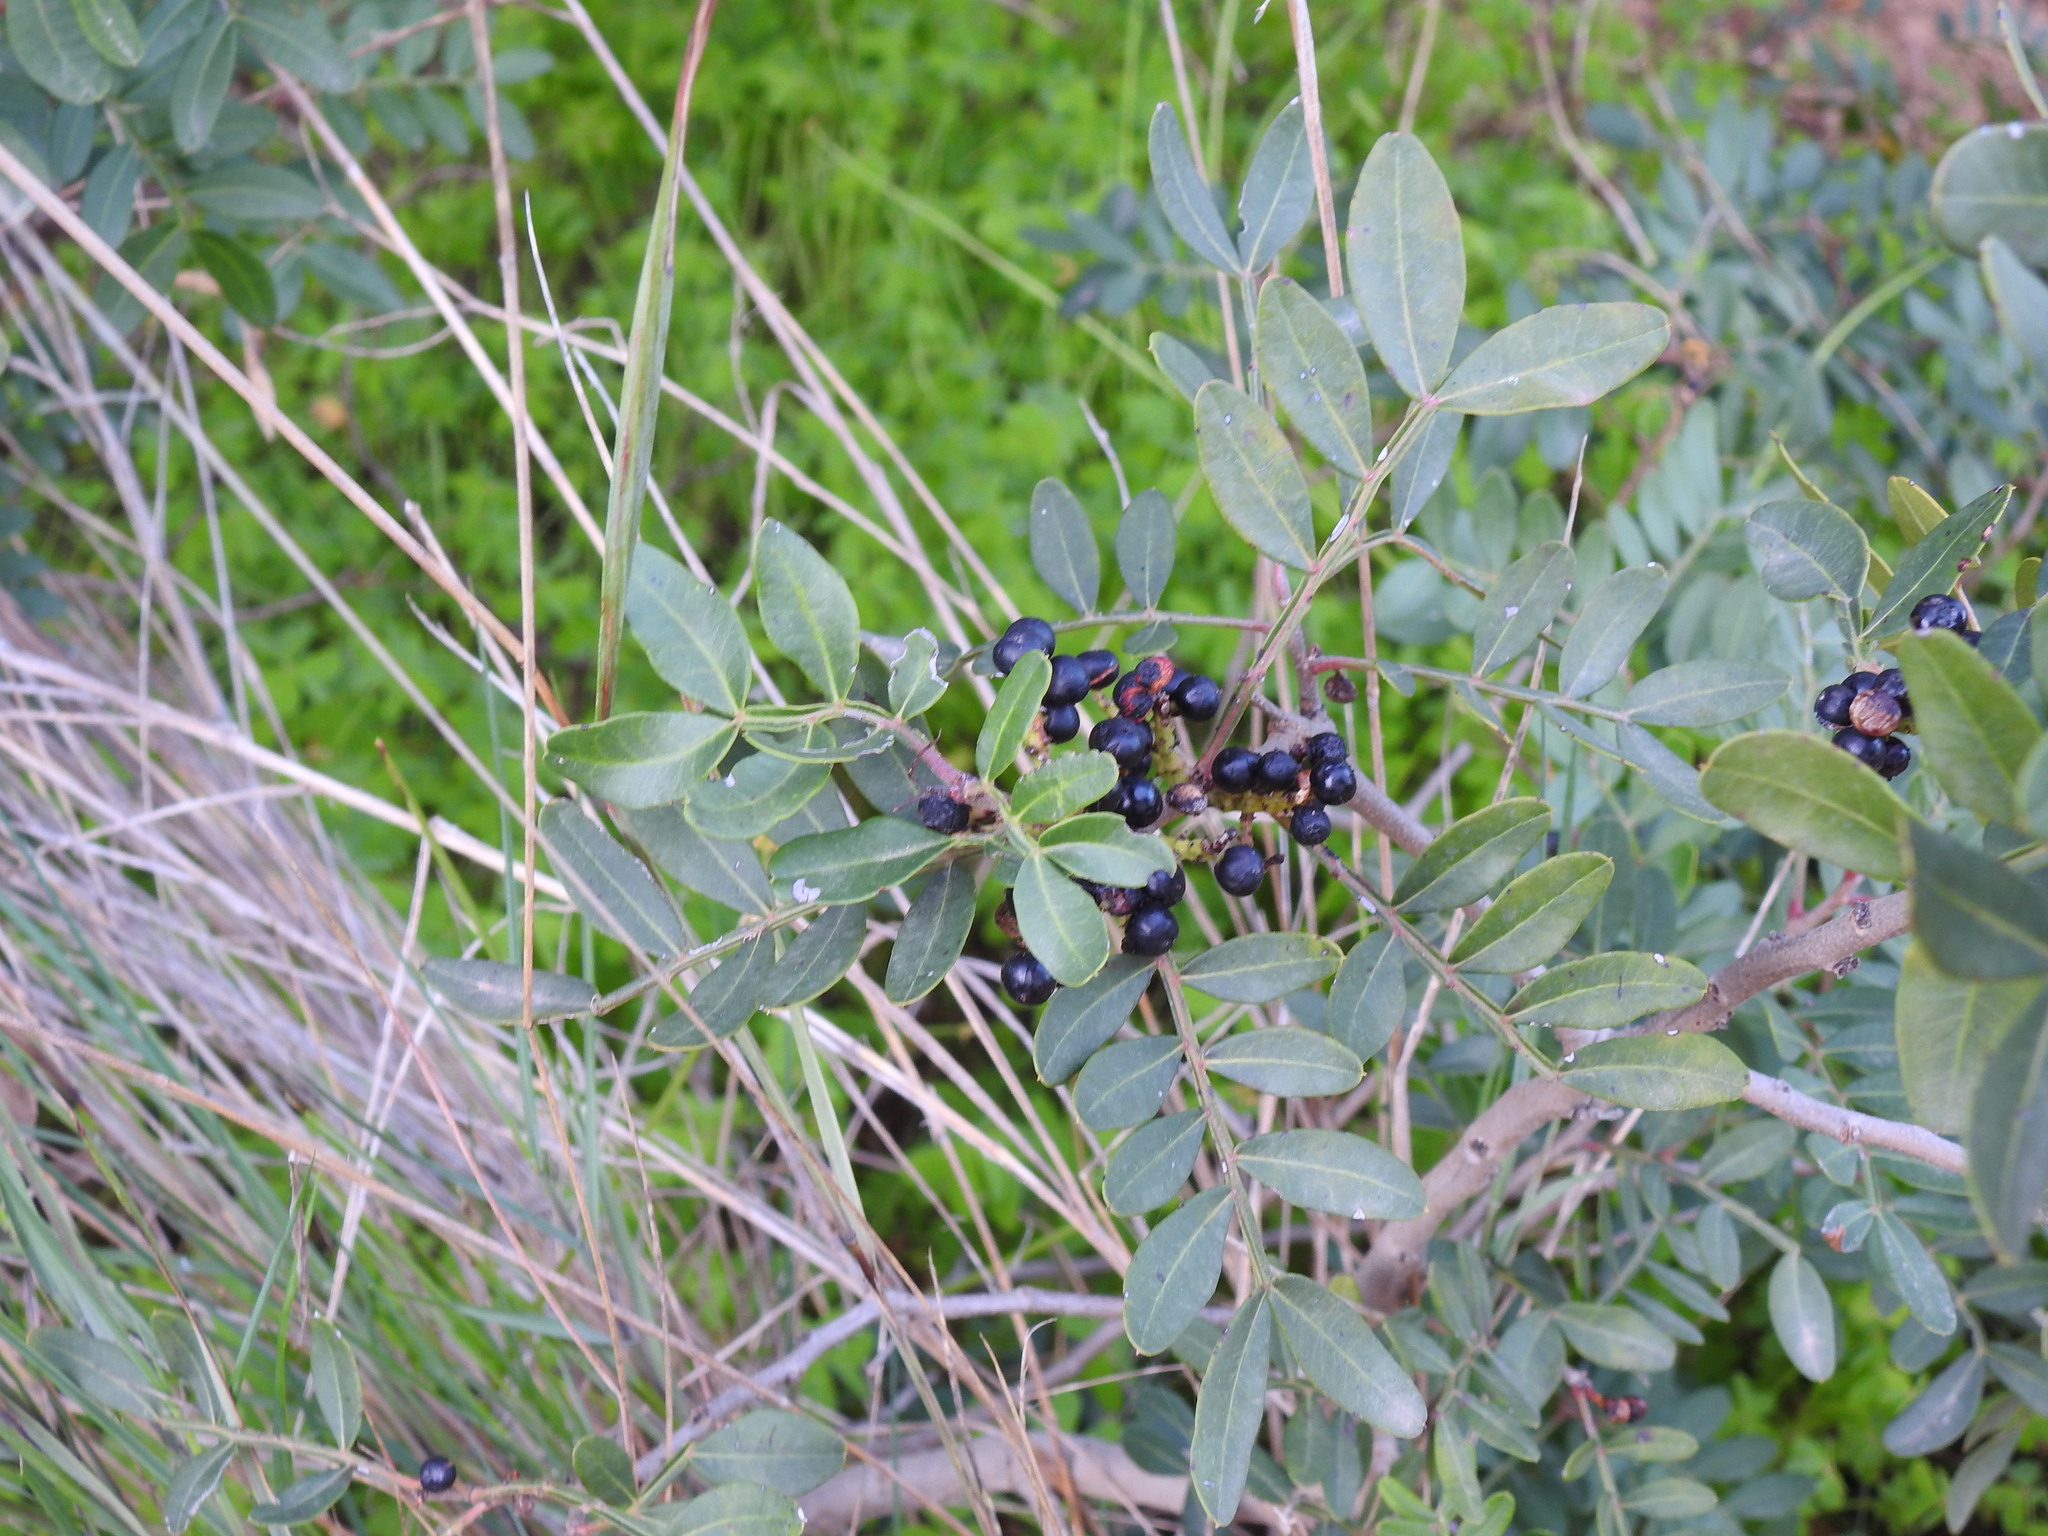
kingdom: Plantae
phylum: Tracheophyta
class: Magnoliopsida
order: Sapindales
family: Anacardiaceae
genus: Pistacia
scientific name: Pistacia lentiscus
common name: Lentisk
